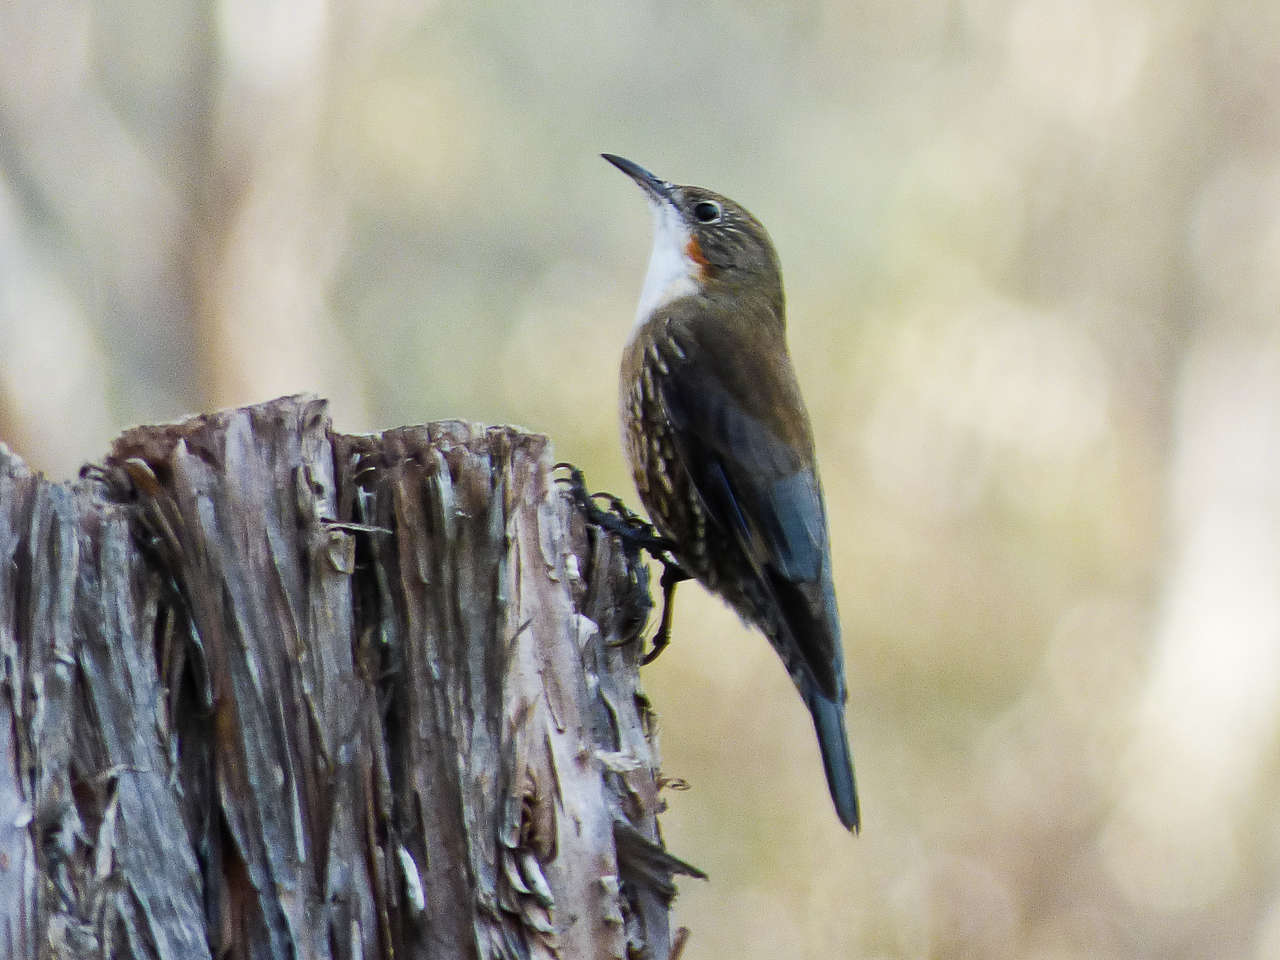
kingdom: Animalia
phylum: Chordata
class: Aves
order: Passeriformes
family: Climacteridae
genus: Cormobates
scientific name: Cormobates leucophaea
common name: White-throated treecreeper
